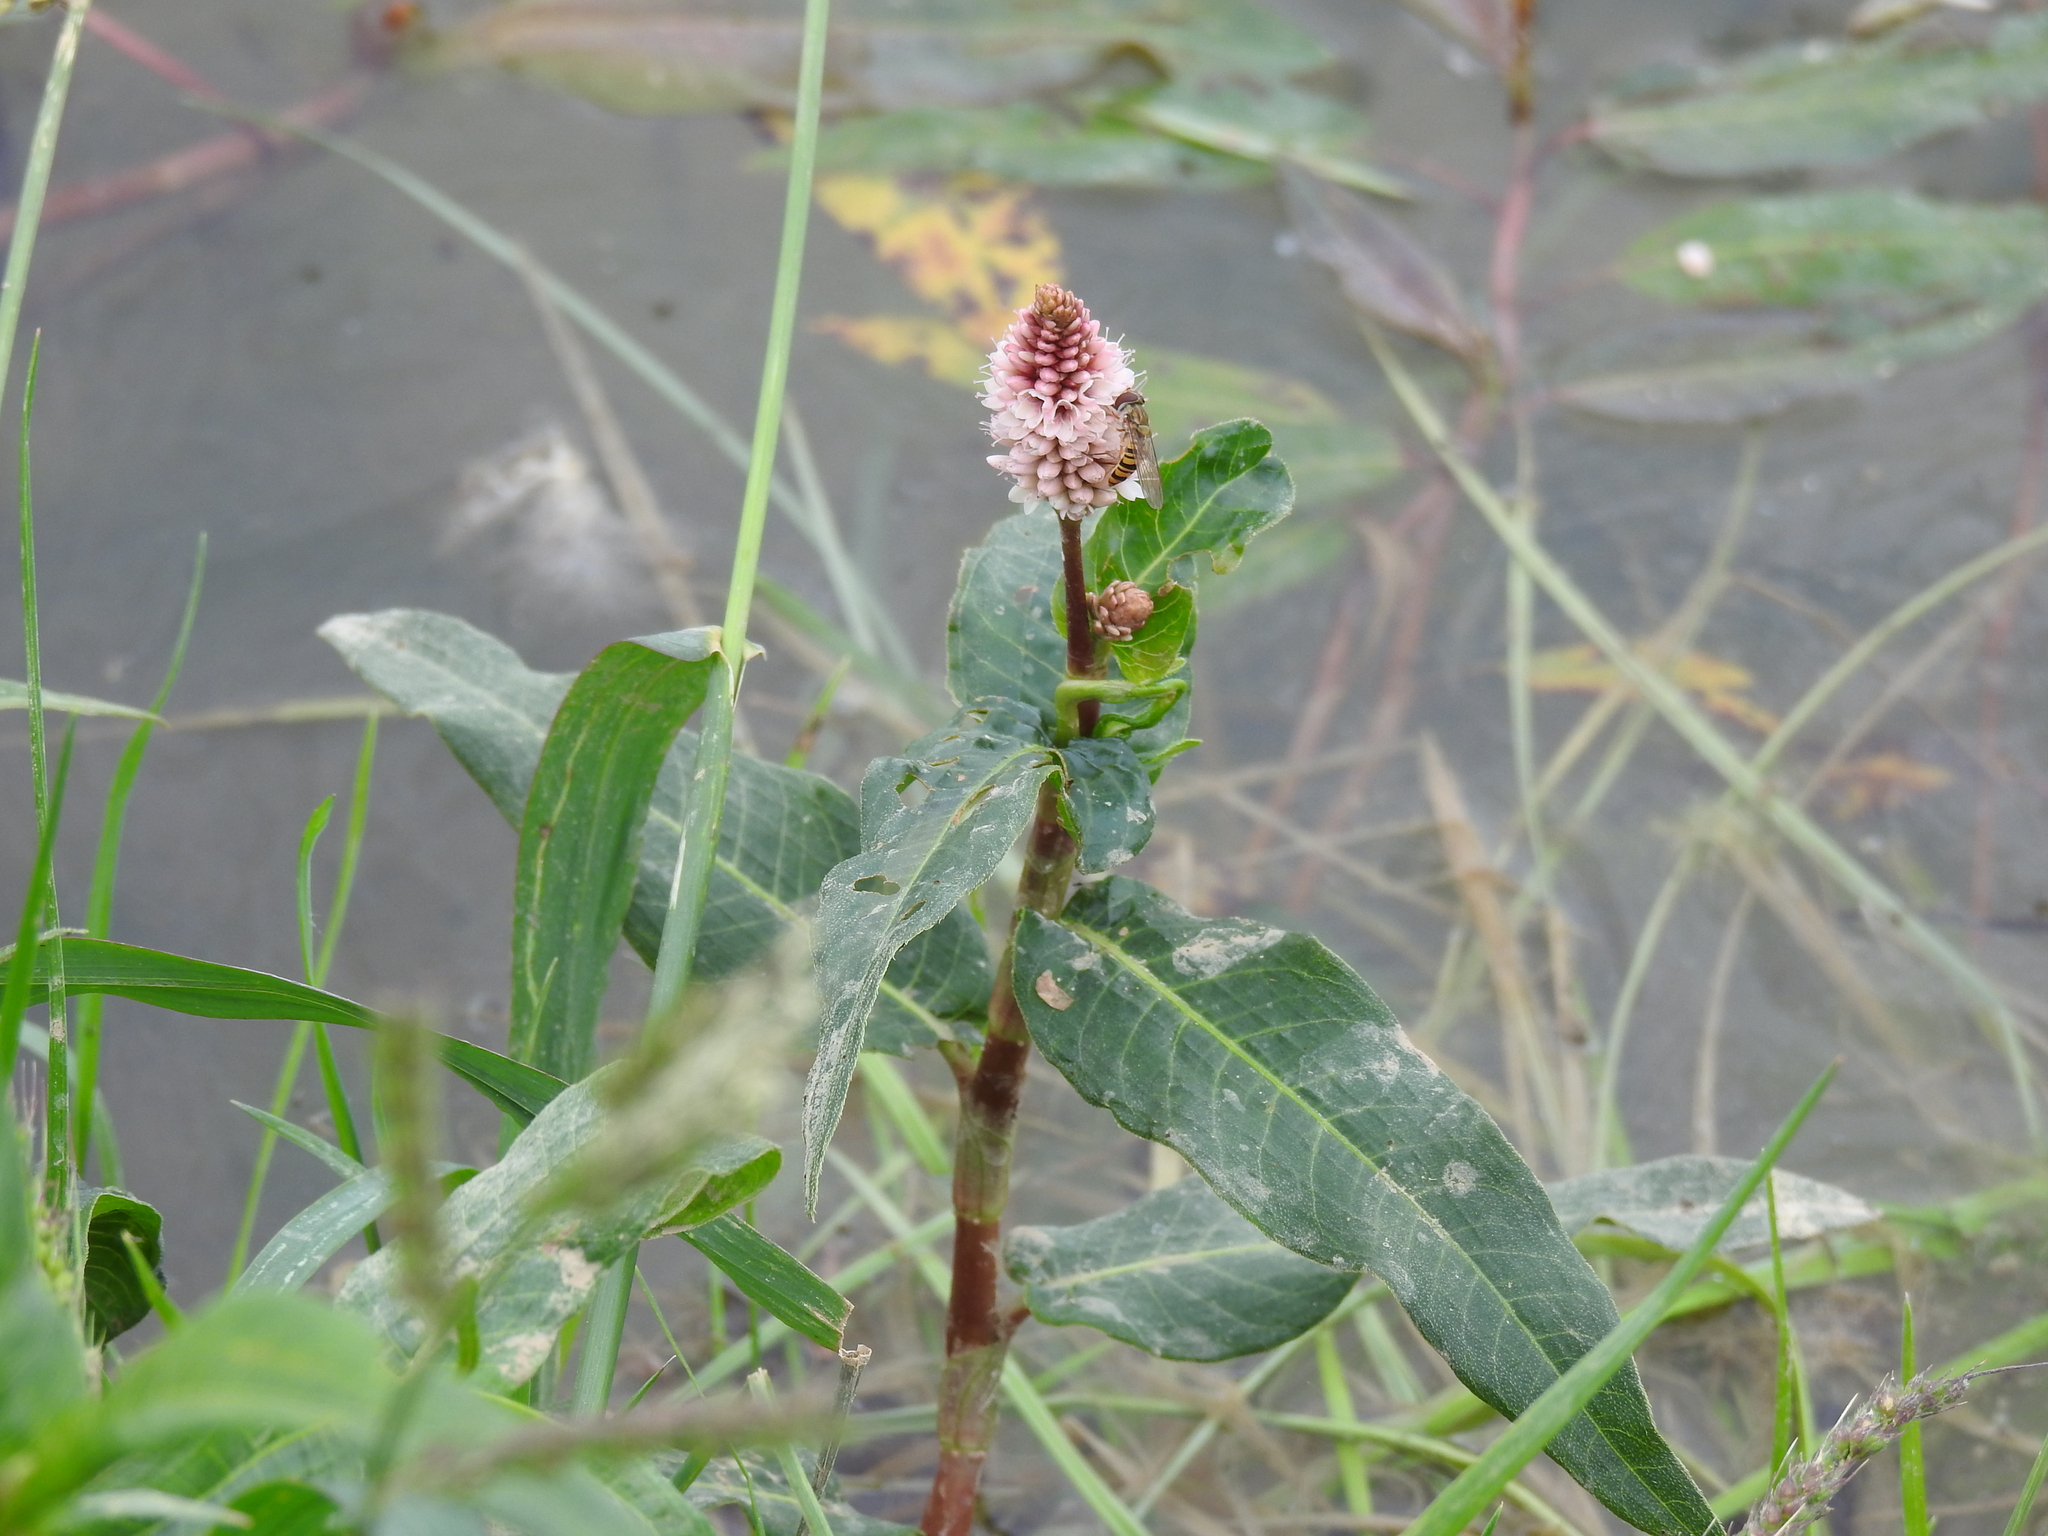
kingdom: Plantae
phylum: Tracheophyta
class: Magnoliopsida
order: Caryophyllales
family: Polygonaceae
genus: Persicaria
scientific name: Persicaria amphibia
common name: Amphibious bistort
